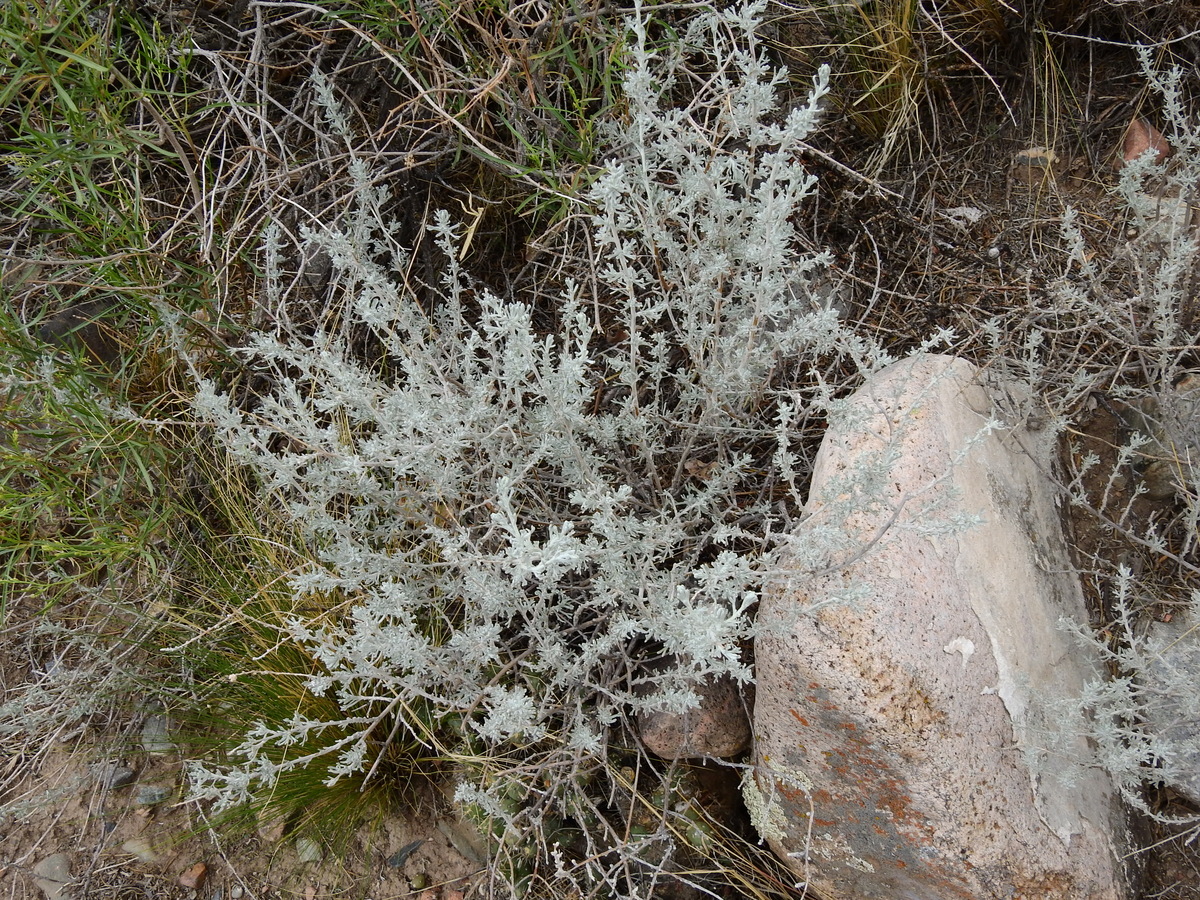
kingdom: Plantae
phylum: Tracheophyta
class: Magnoliopsida
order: Asterales
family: Asteraceae
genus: Artemisia
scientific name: Artemisia mendozana
